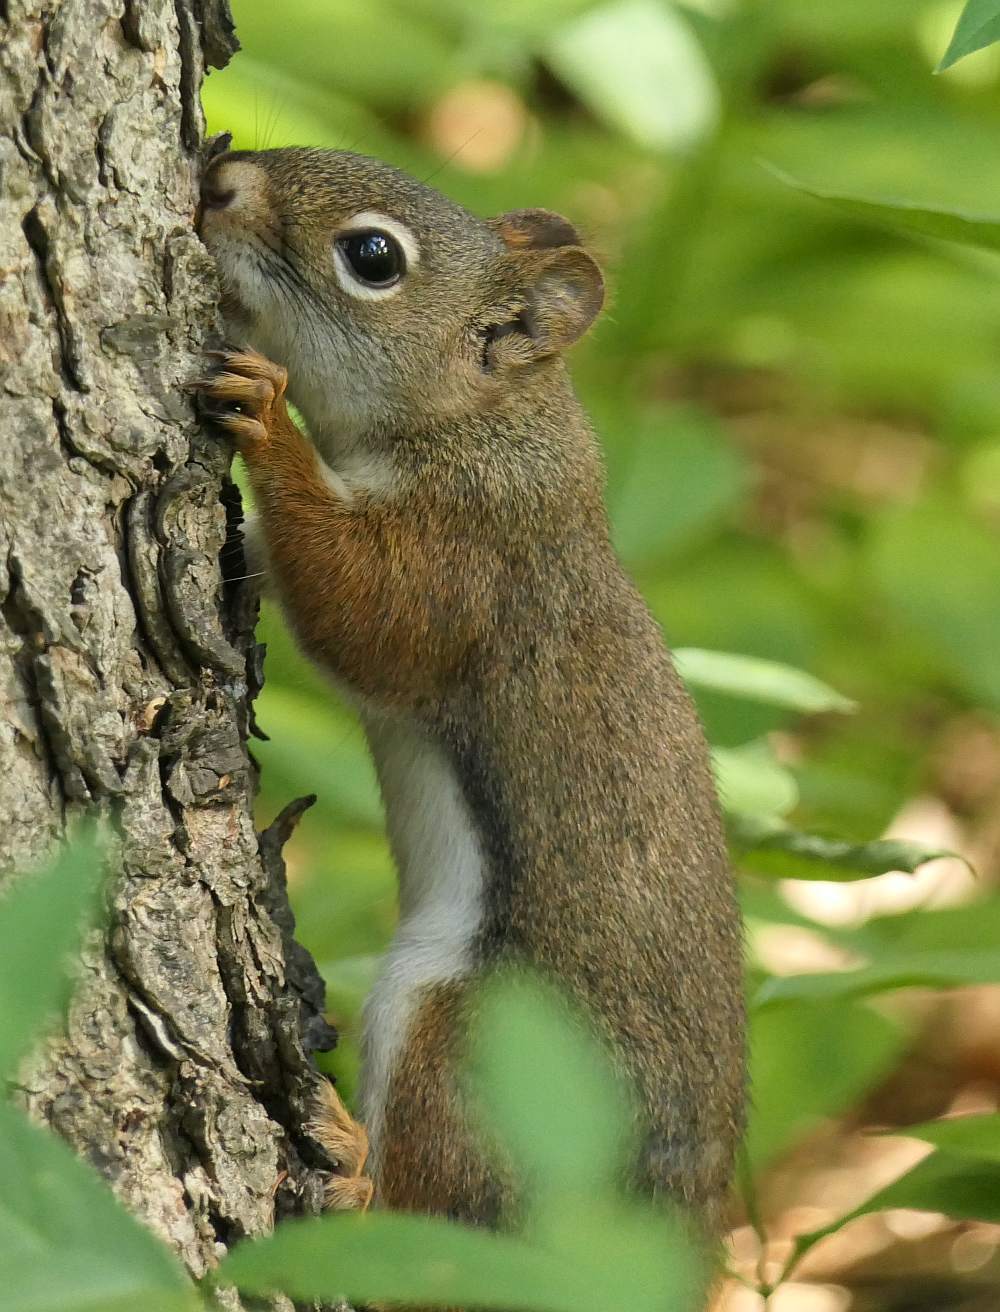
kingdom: Animalia
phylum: Chordata
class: Mammalia
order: Rodentia
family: Sciuridae
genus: Tamiasciurus
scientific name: Tamiasciurus hudsonicus
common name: Red squirrel
